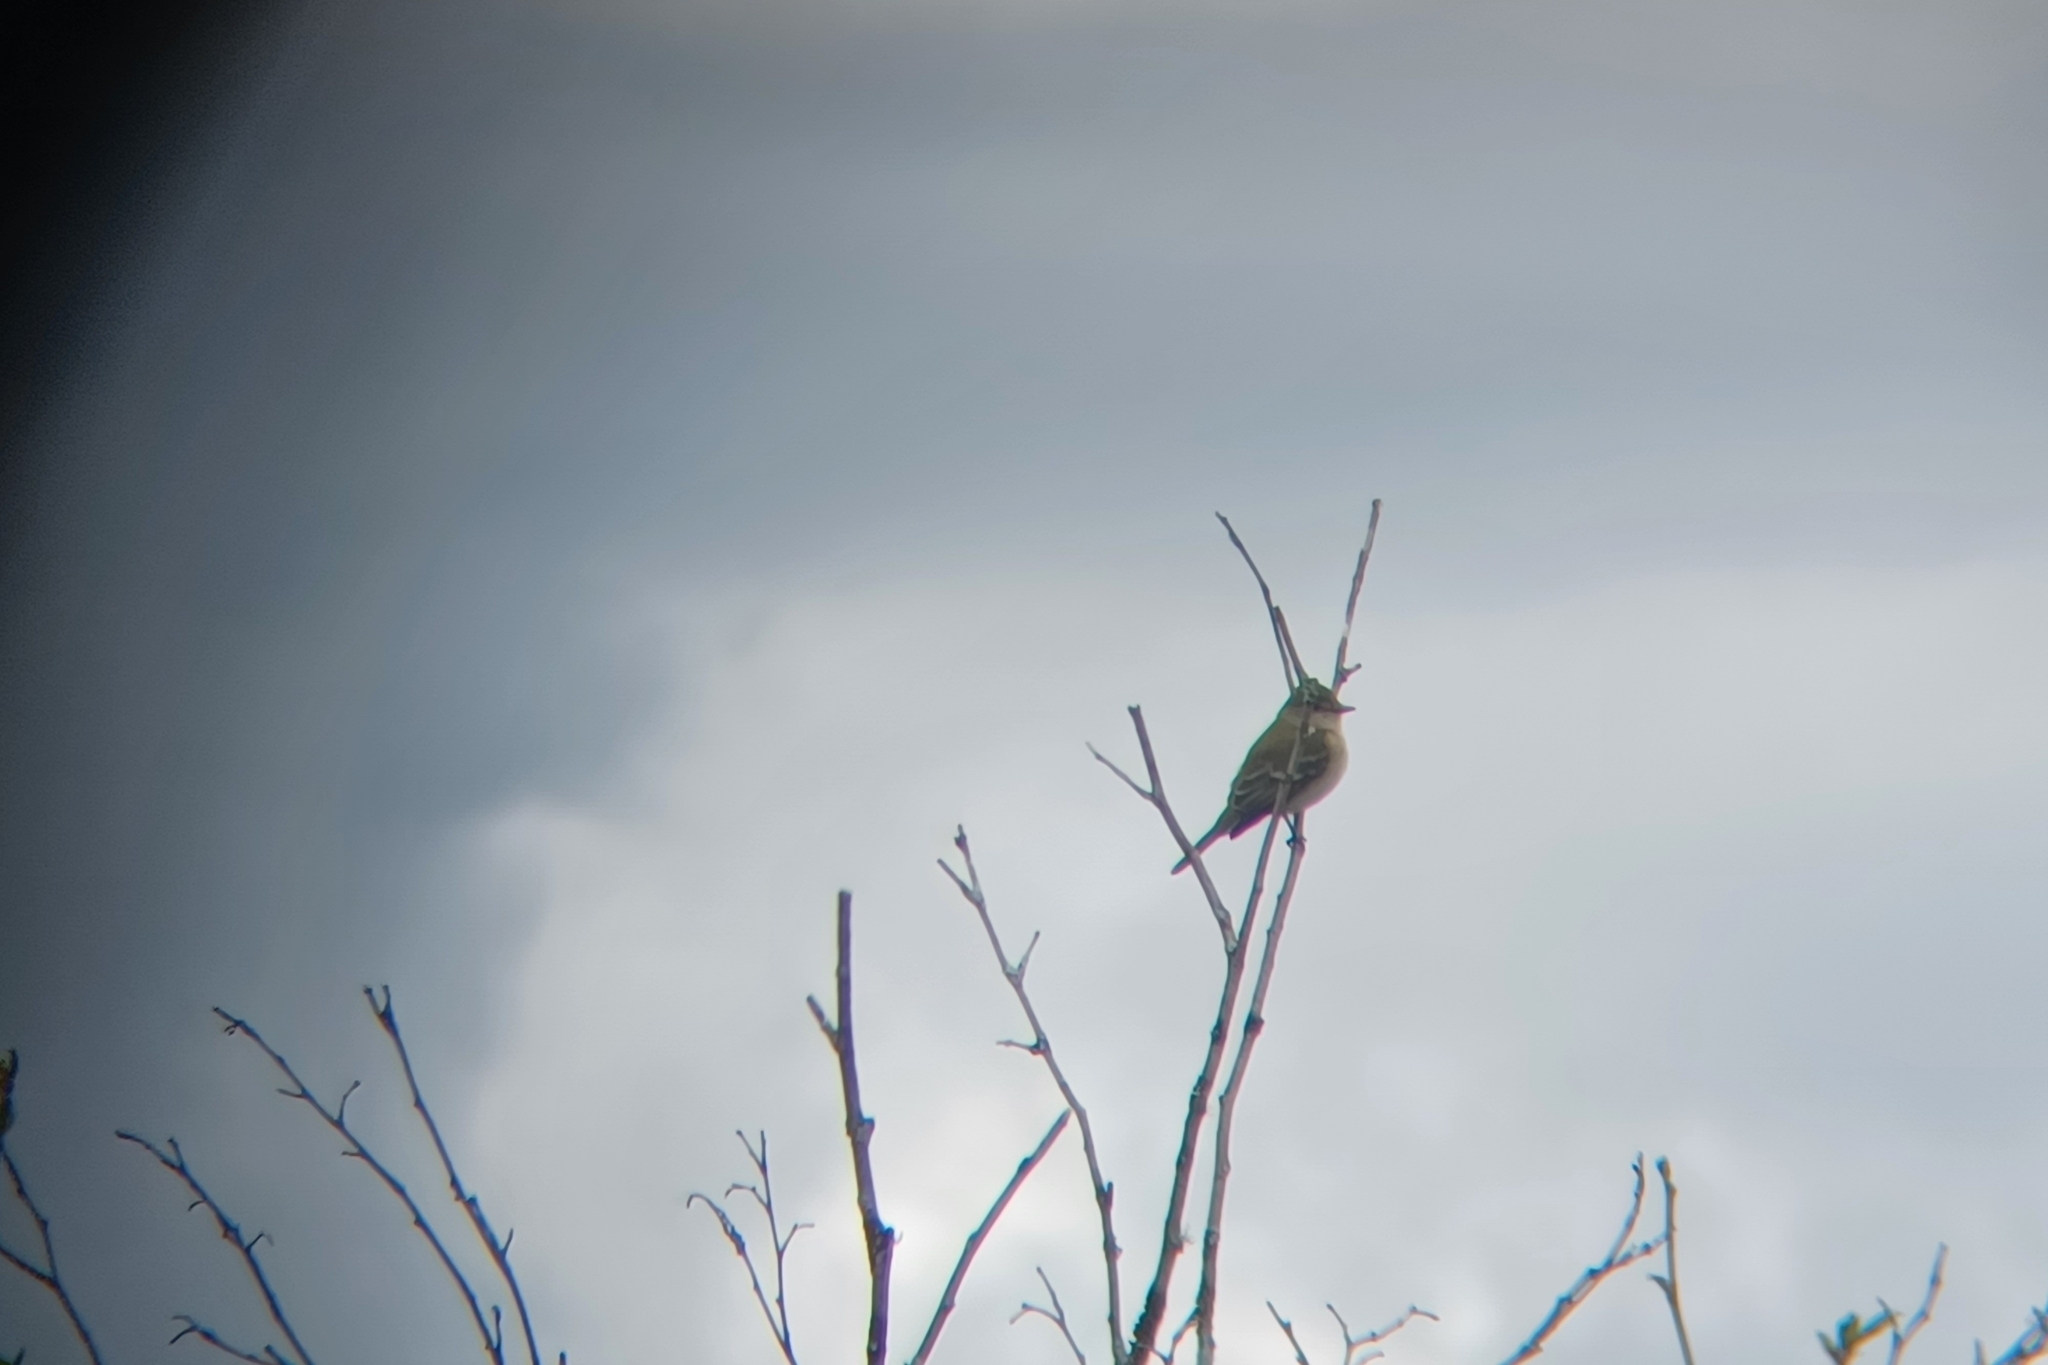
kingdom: Animalia
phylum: Chordata
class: Aves
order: Passeriformes
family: Tyrannidae
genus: Empidonax
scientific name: Empidonax traillii
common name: Willow flycatcher
